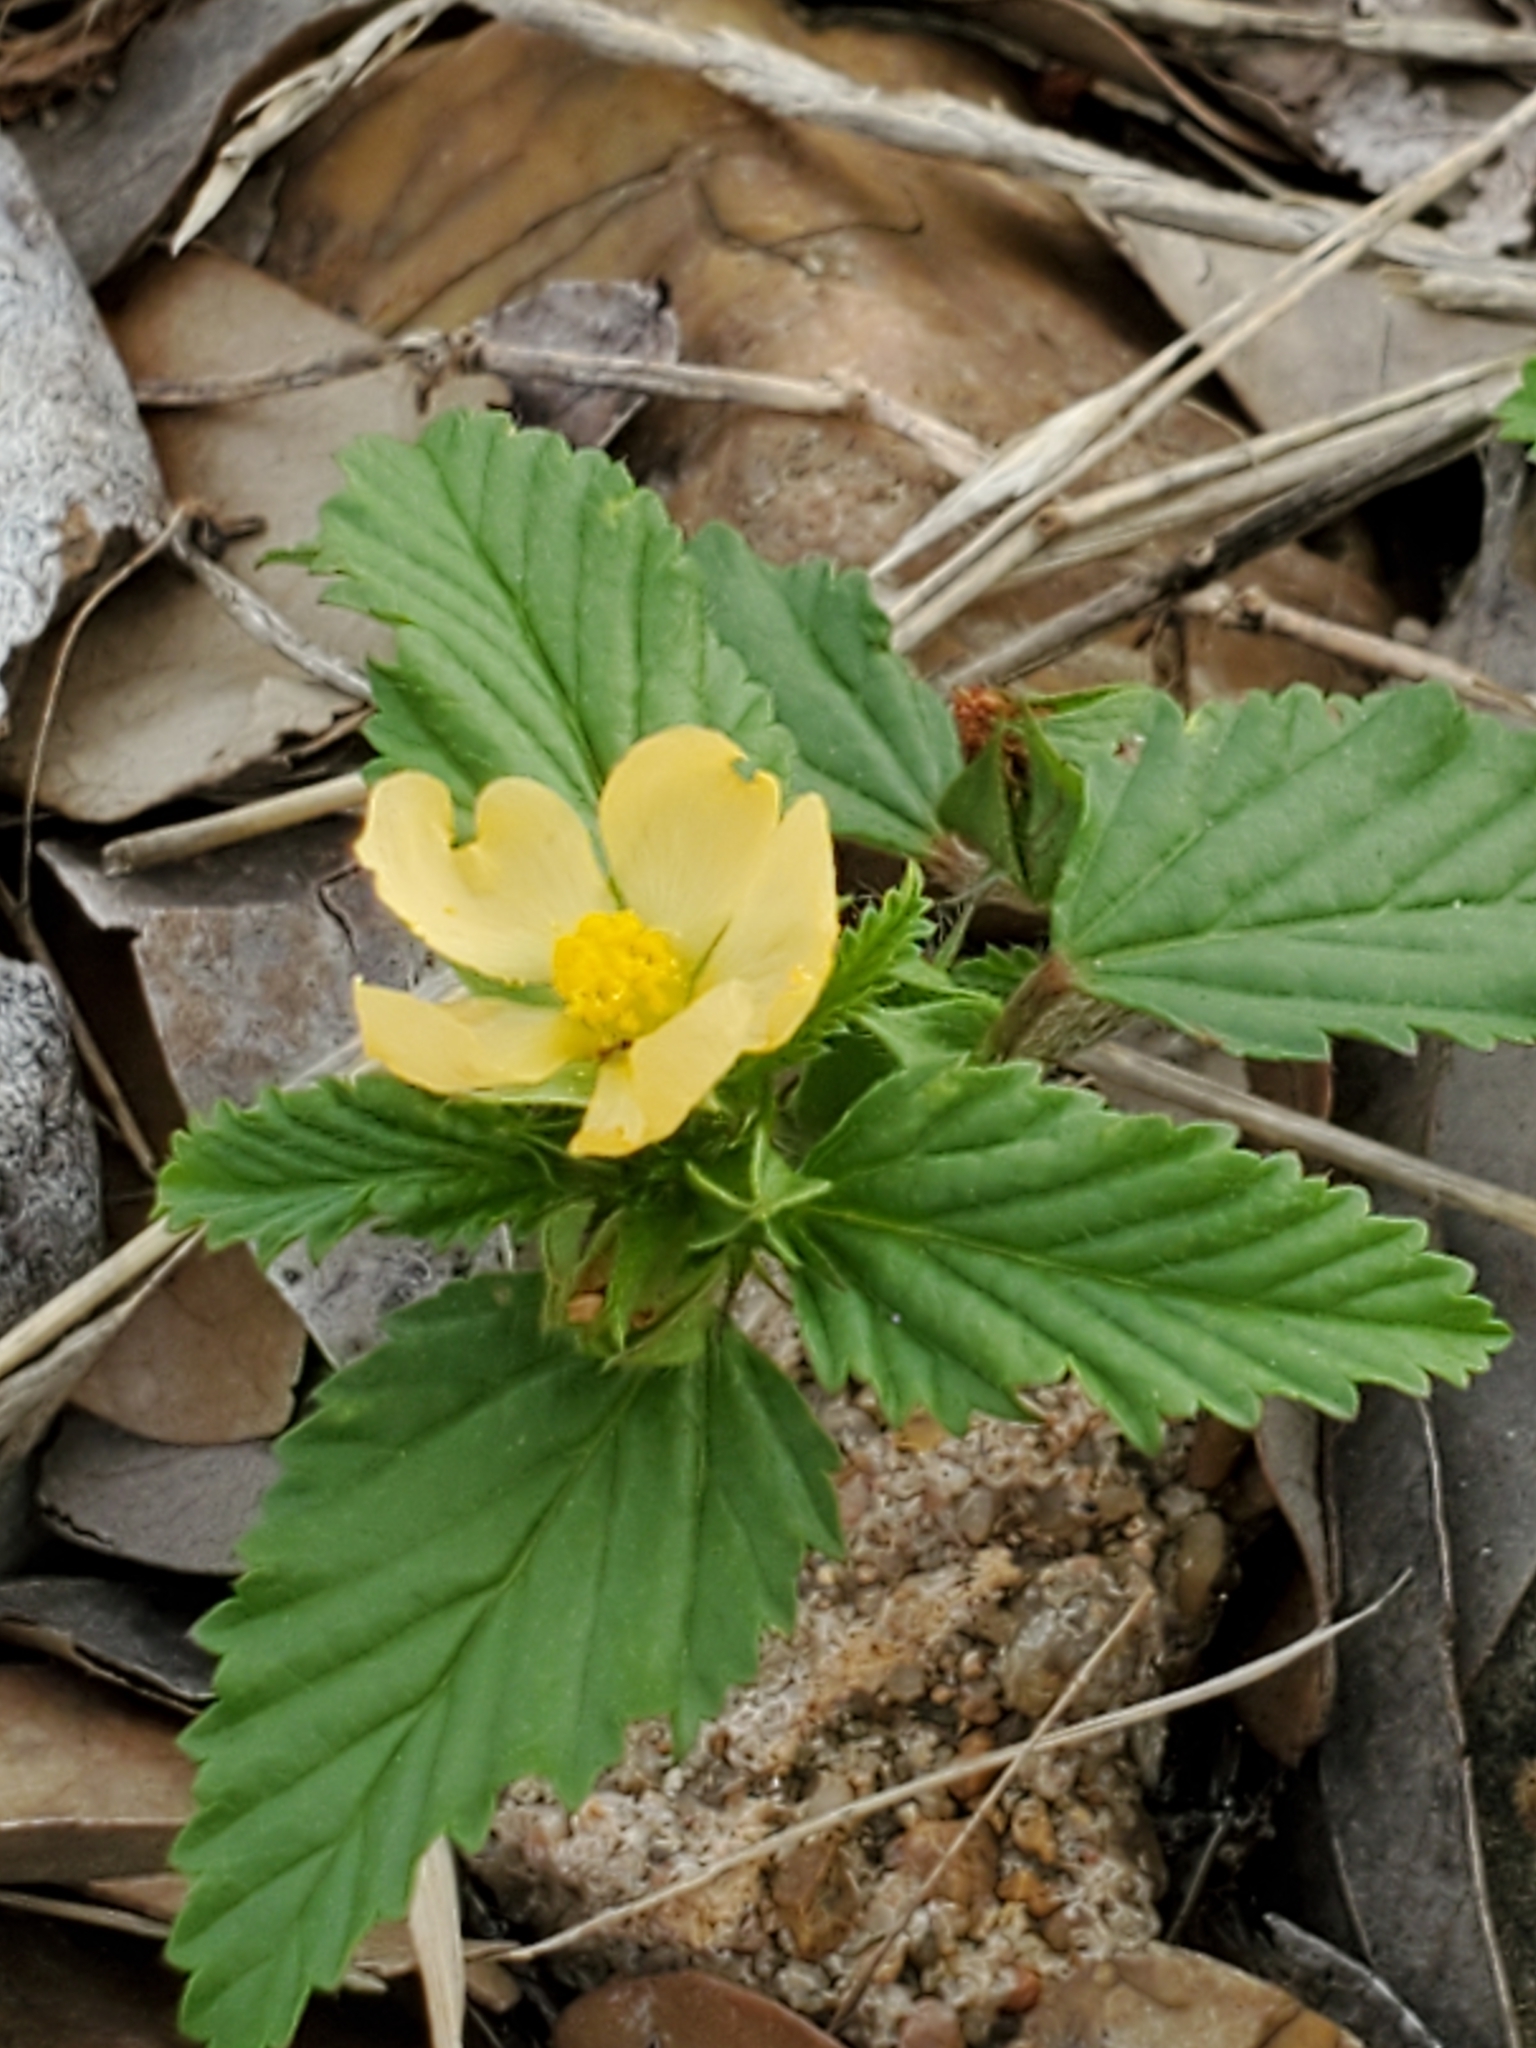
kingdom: Plantae
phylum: Tracheophyta
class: Magnoliopsida
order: Malvales
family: Malvaceae
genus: Malvastrum
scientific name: Malvastrum coromandelianum
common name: Threelobe false mallow
